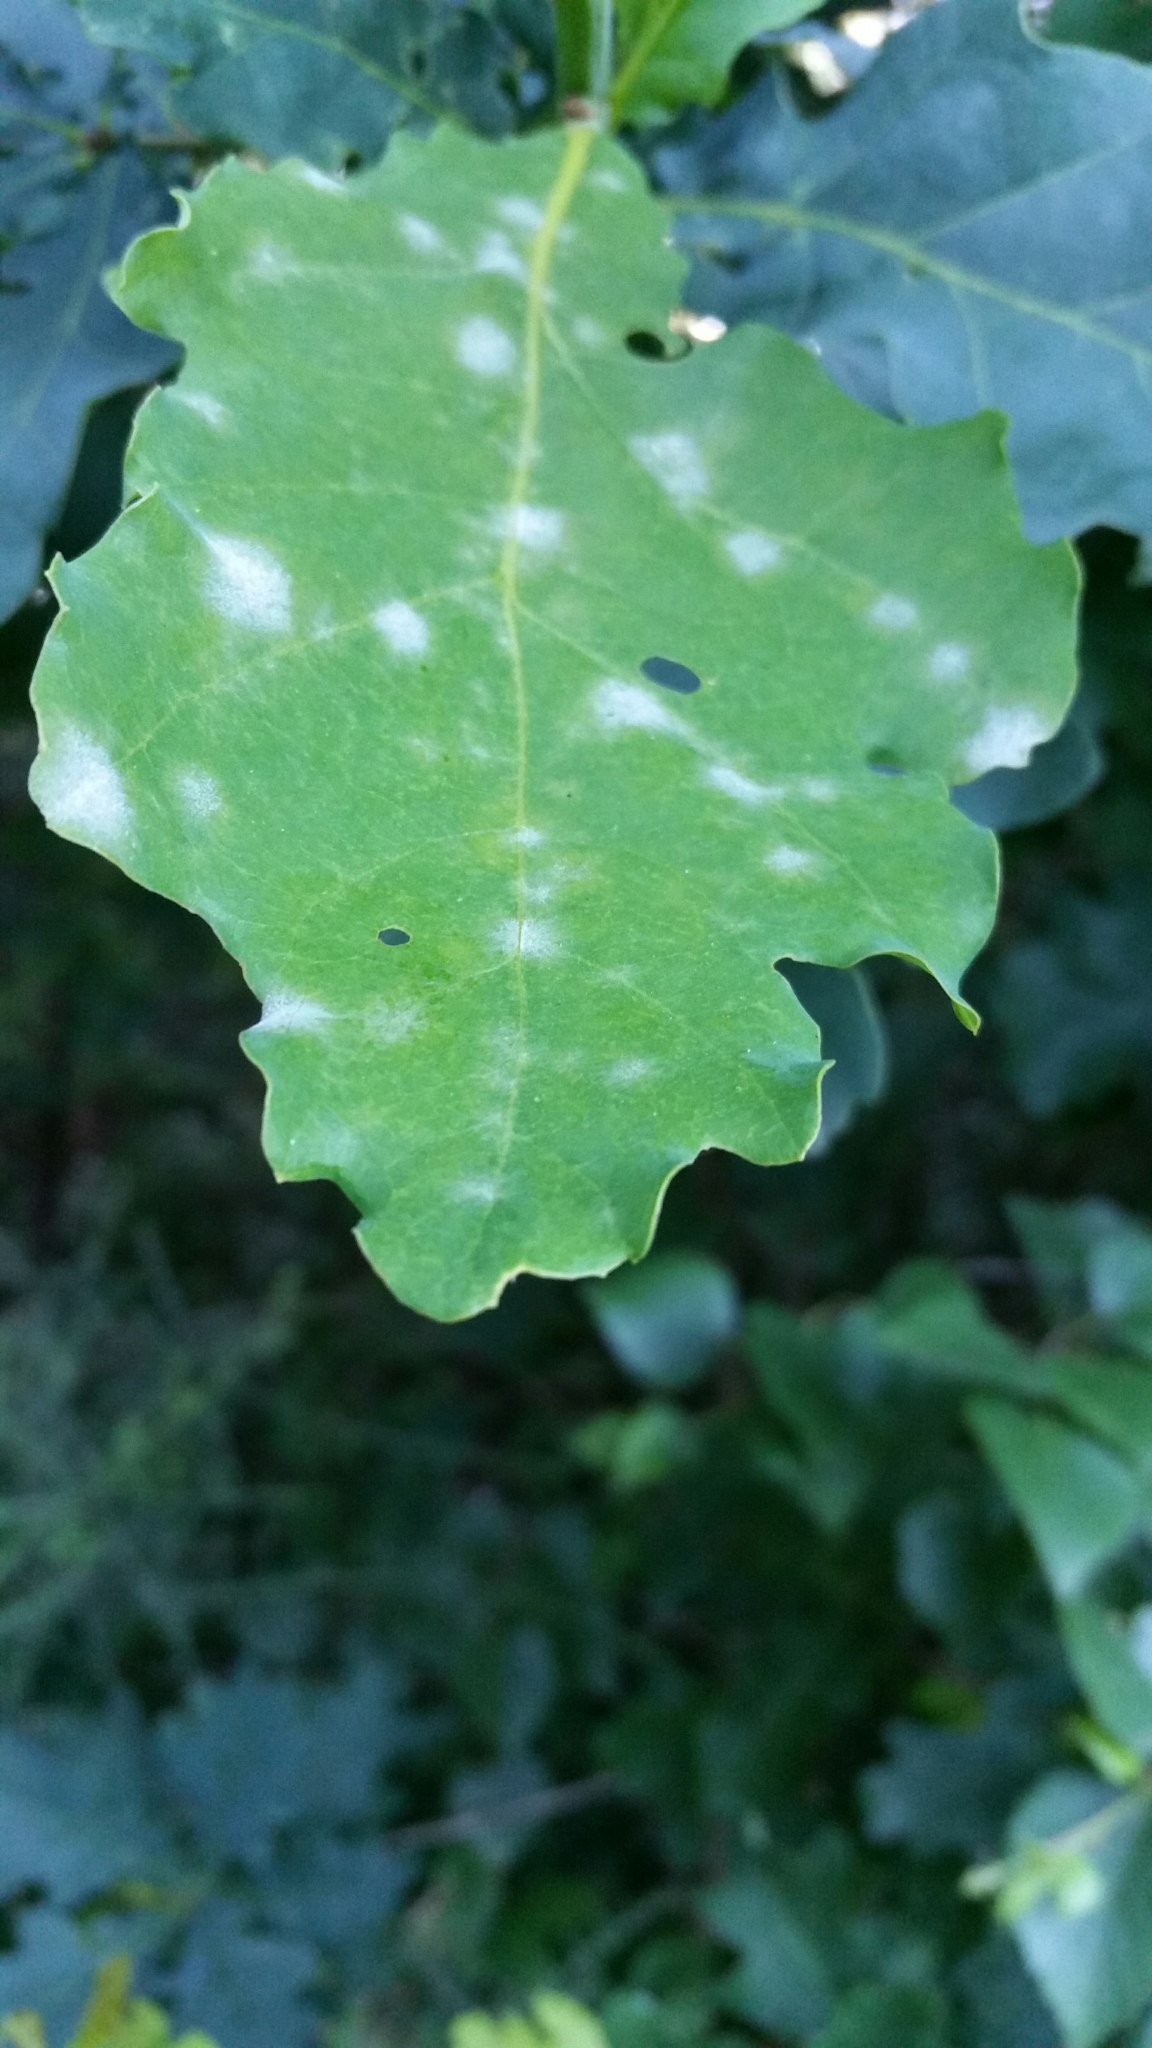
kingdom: Fungi
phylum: Ascomycota
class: Leotiomycetes
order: Helotiales
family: Erysiphaceae
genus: Erysiphe
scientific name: Erysiphe alphitoides
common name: Oak mildew
